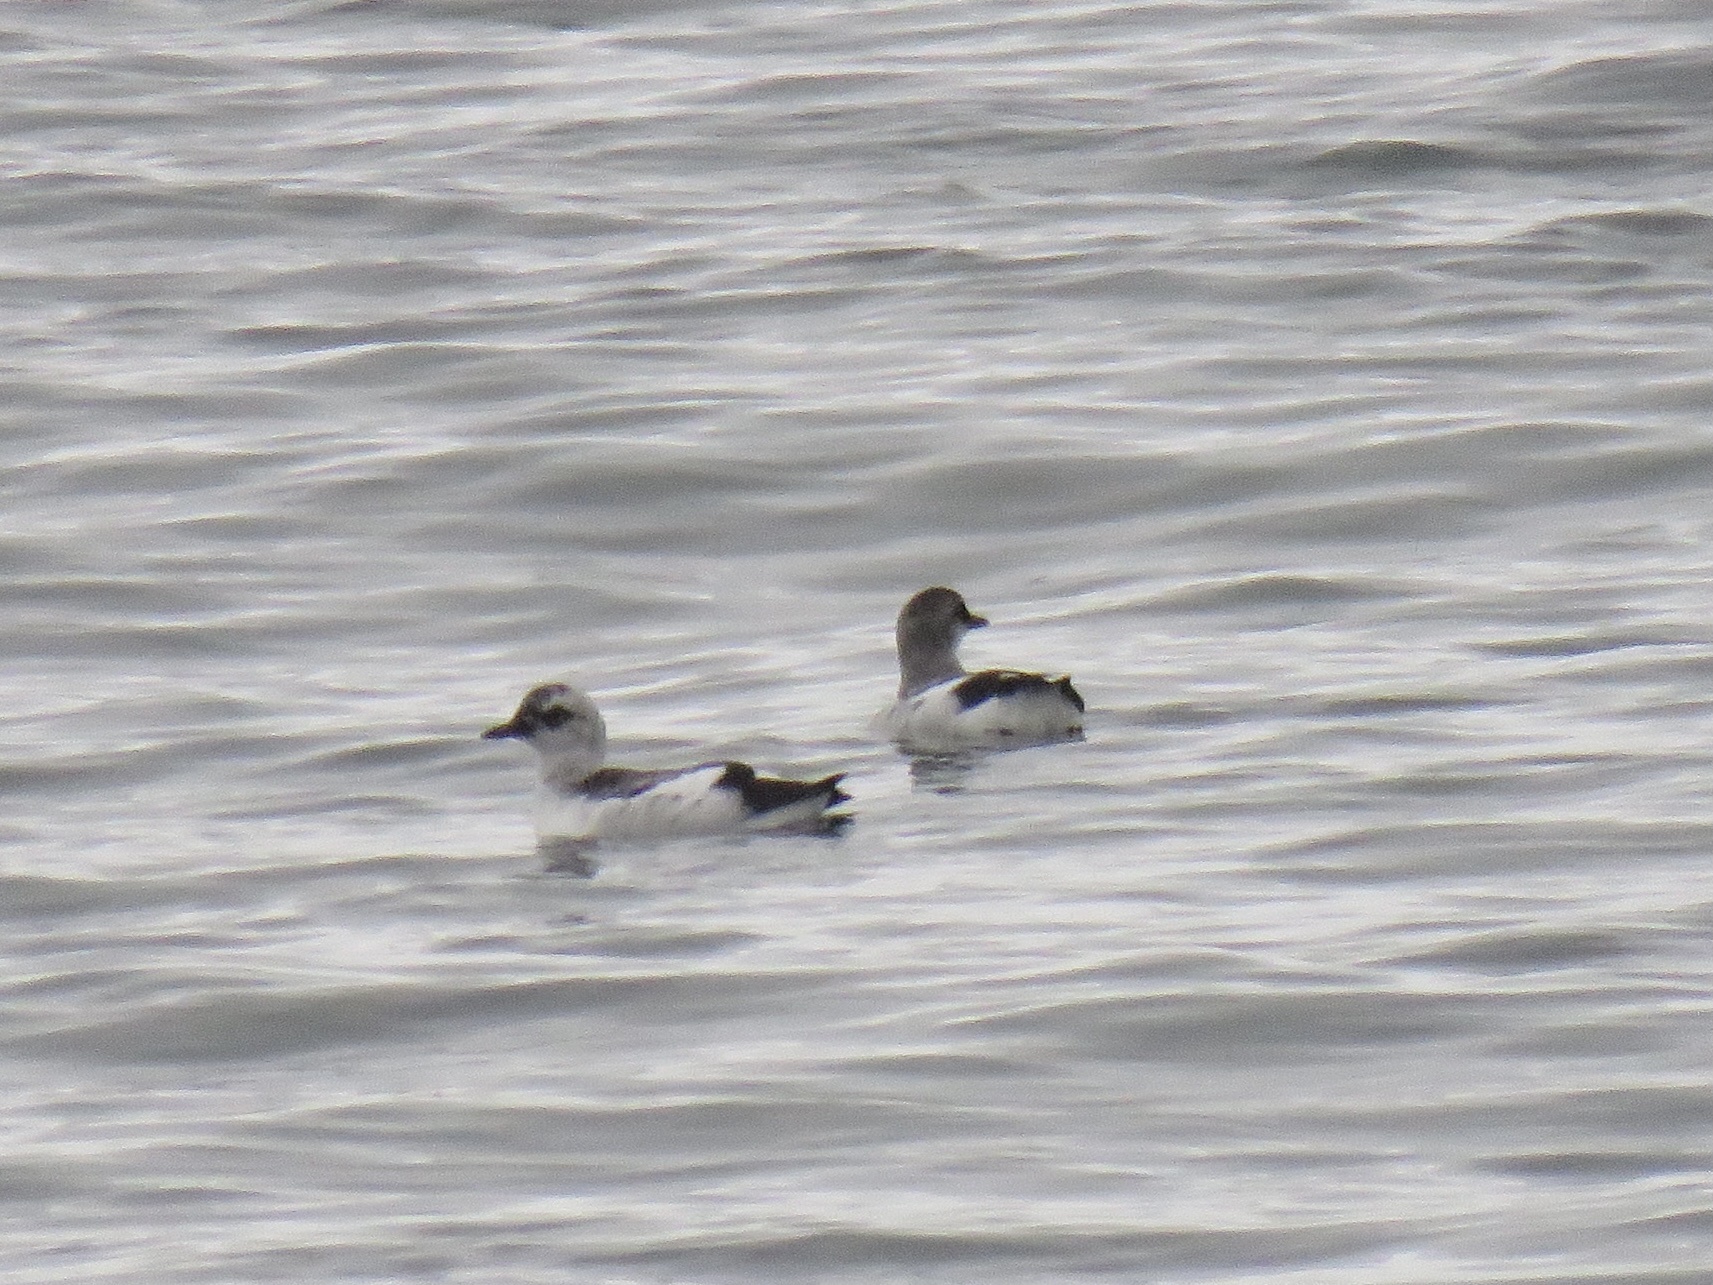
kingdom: Animalia
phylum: Chordata
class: Aves
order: Charadriiformes
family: Alcidae
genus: Cepphus
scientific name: Cepphus columba
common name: Pigeon guillemot
